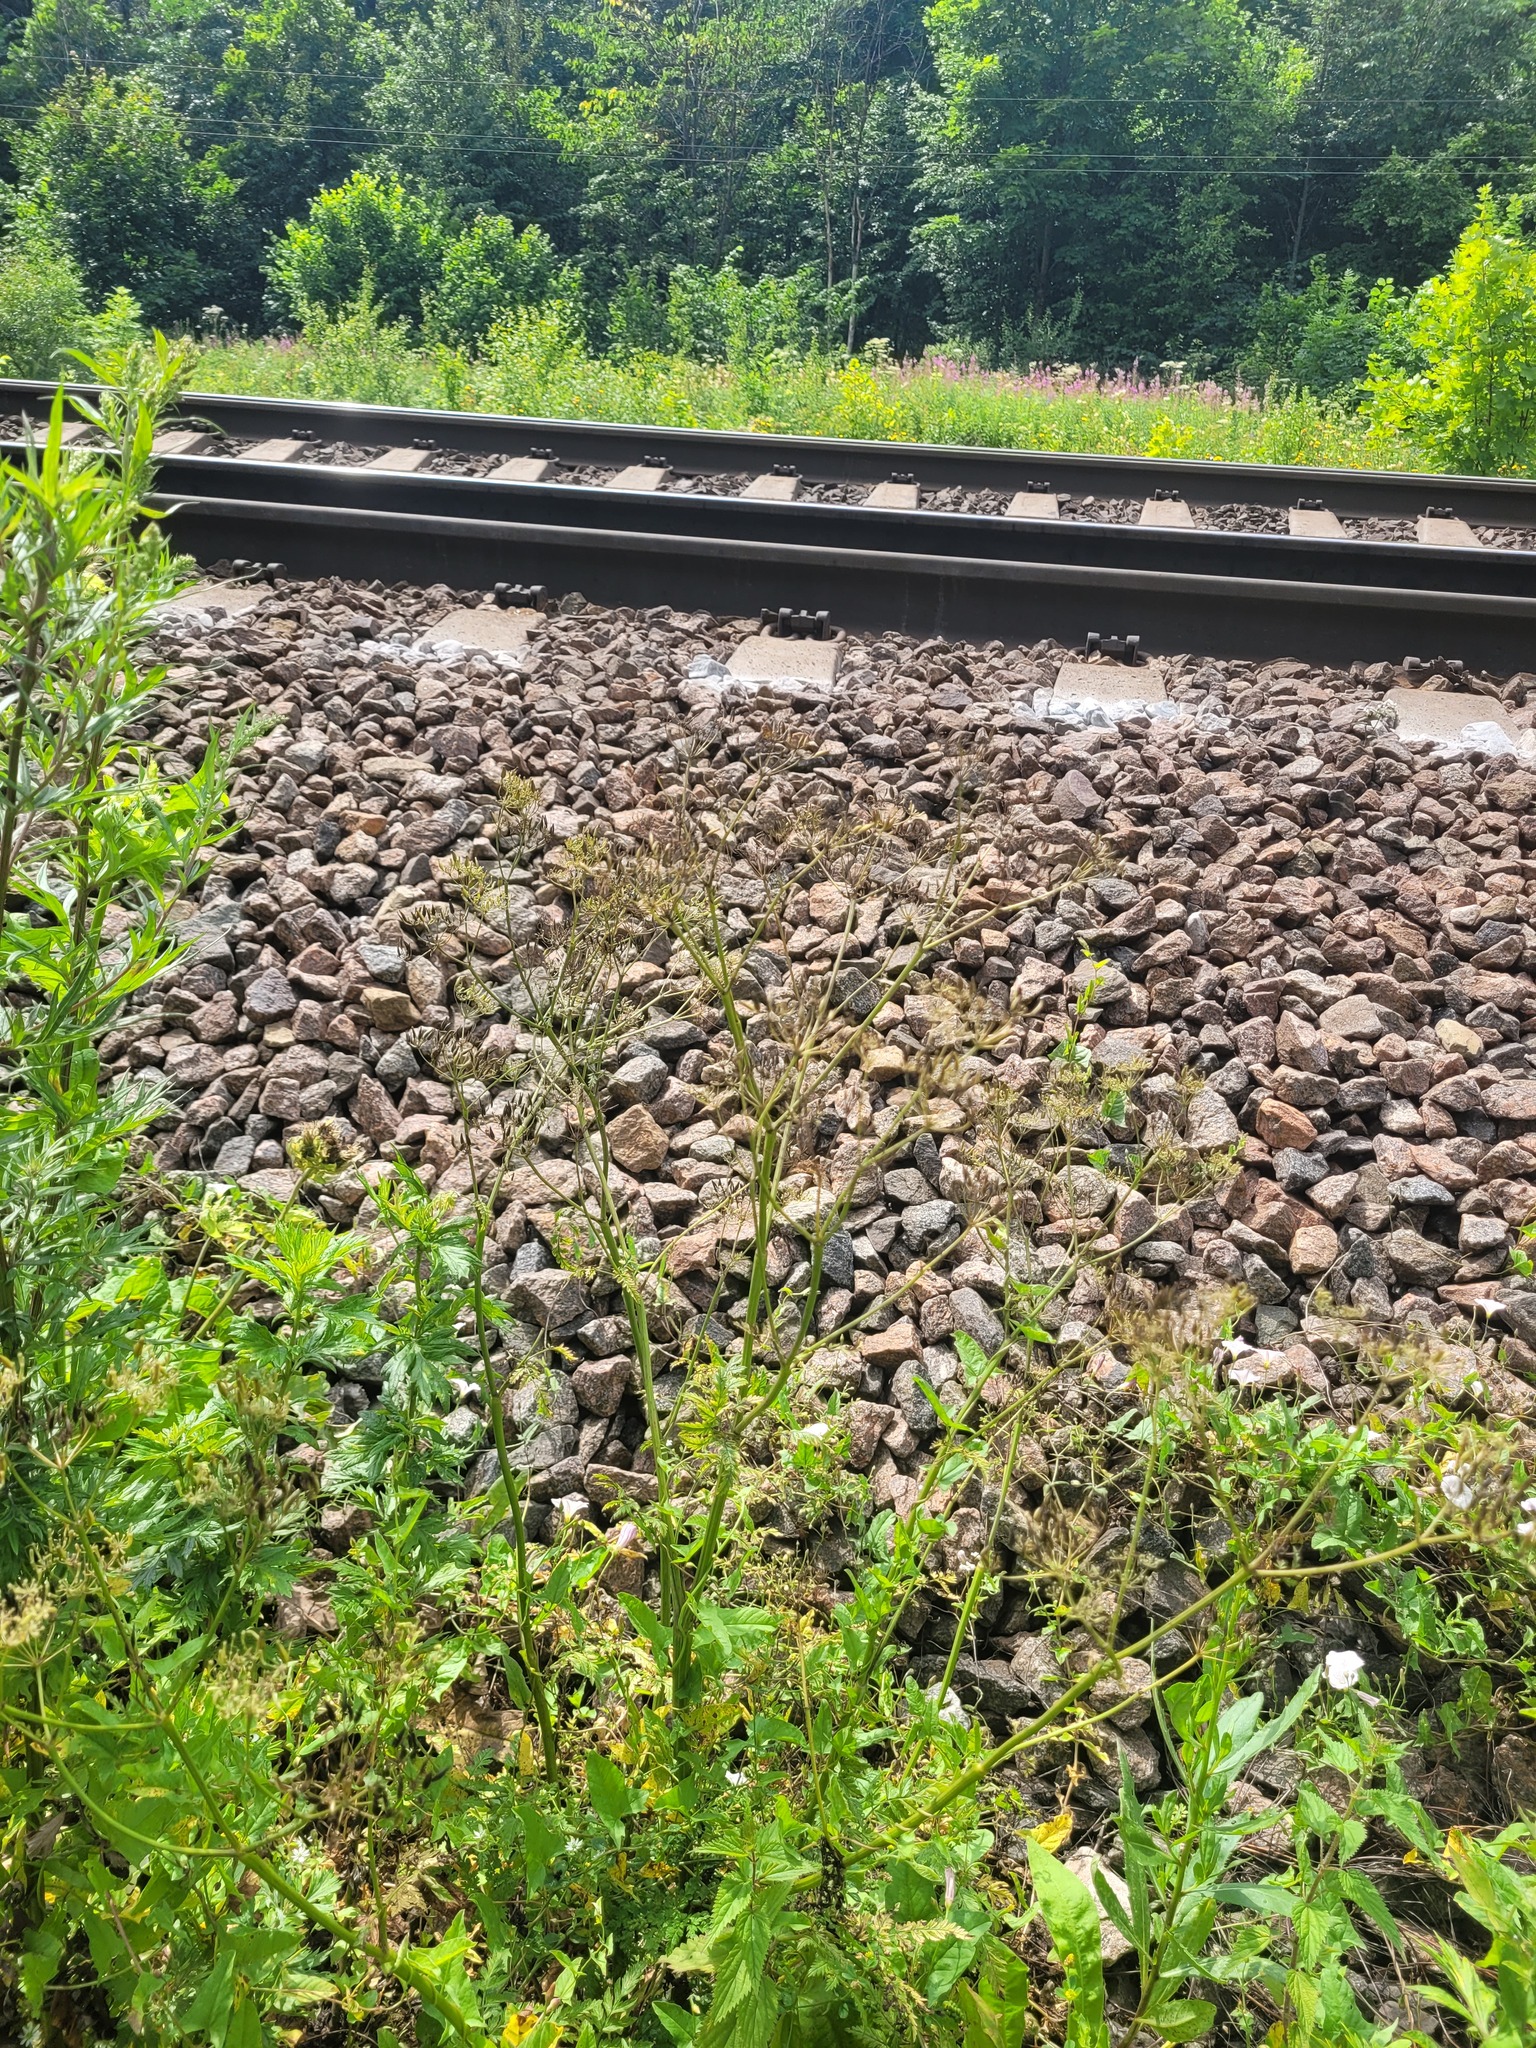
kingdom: Plantae
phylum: Tracheophyta
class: Magnoliopsida
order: Apiales
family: Apiaceae
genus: Anthriscus
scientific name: Anthriscus sylvestris
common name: Cow parsley
